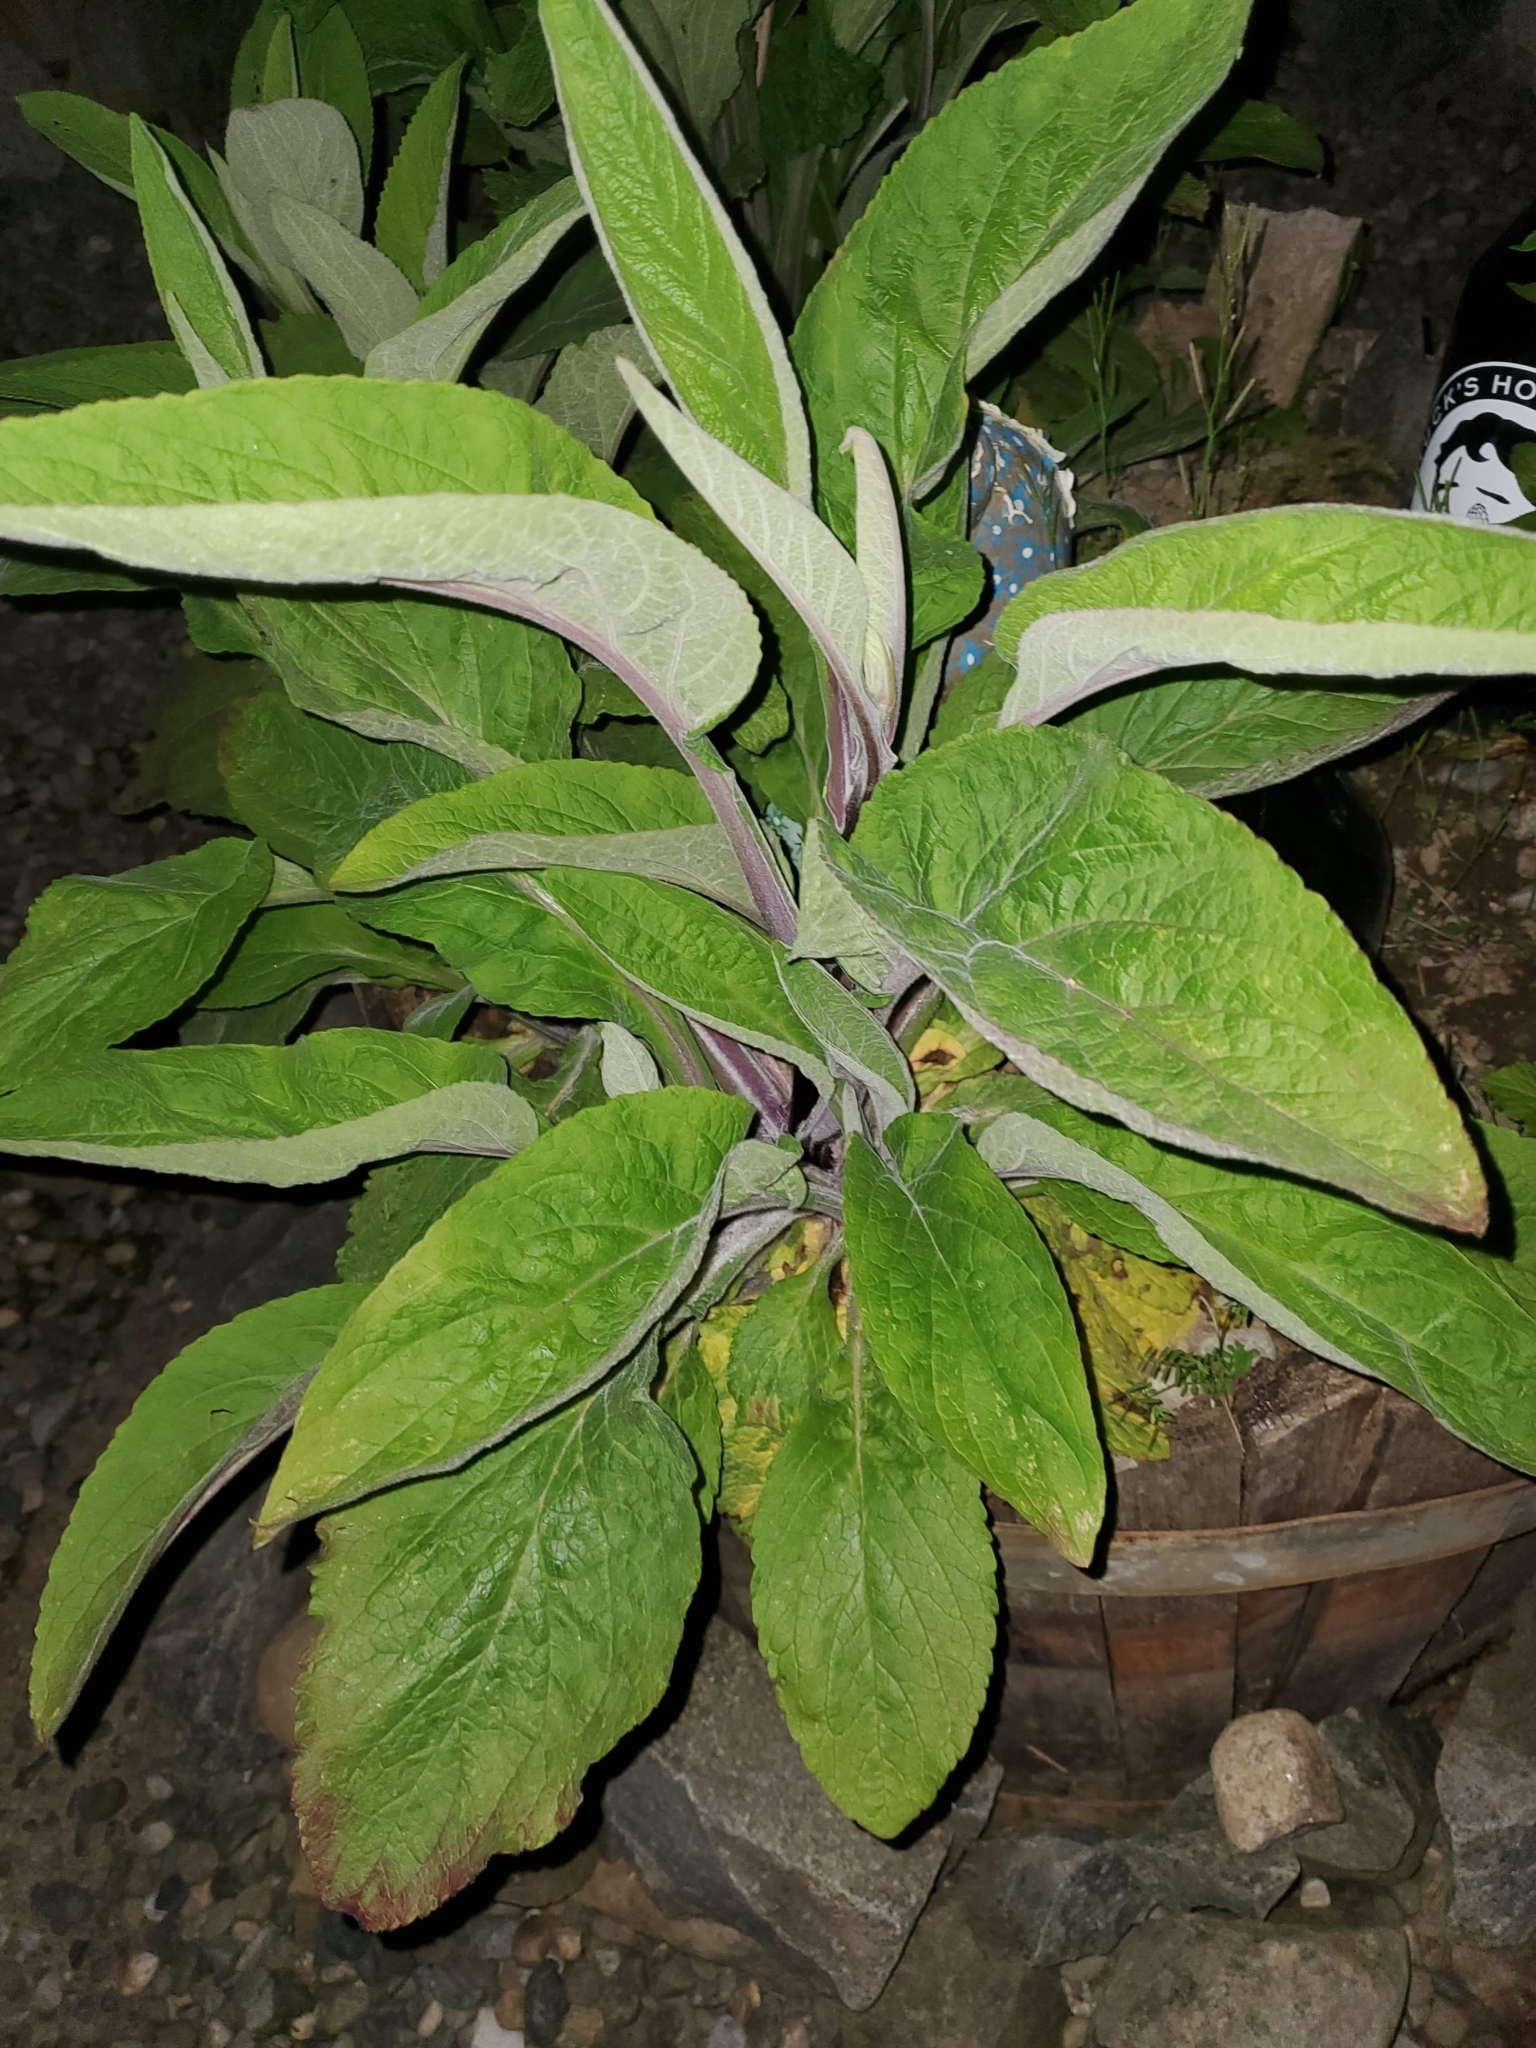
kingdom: Plantae
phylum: Tracheophyta
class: Magnoliopsida
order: Lamiales
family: Plantaginaceae
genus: Digitalis
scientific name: Digitalis purpurea
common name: Foxglove
